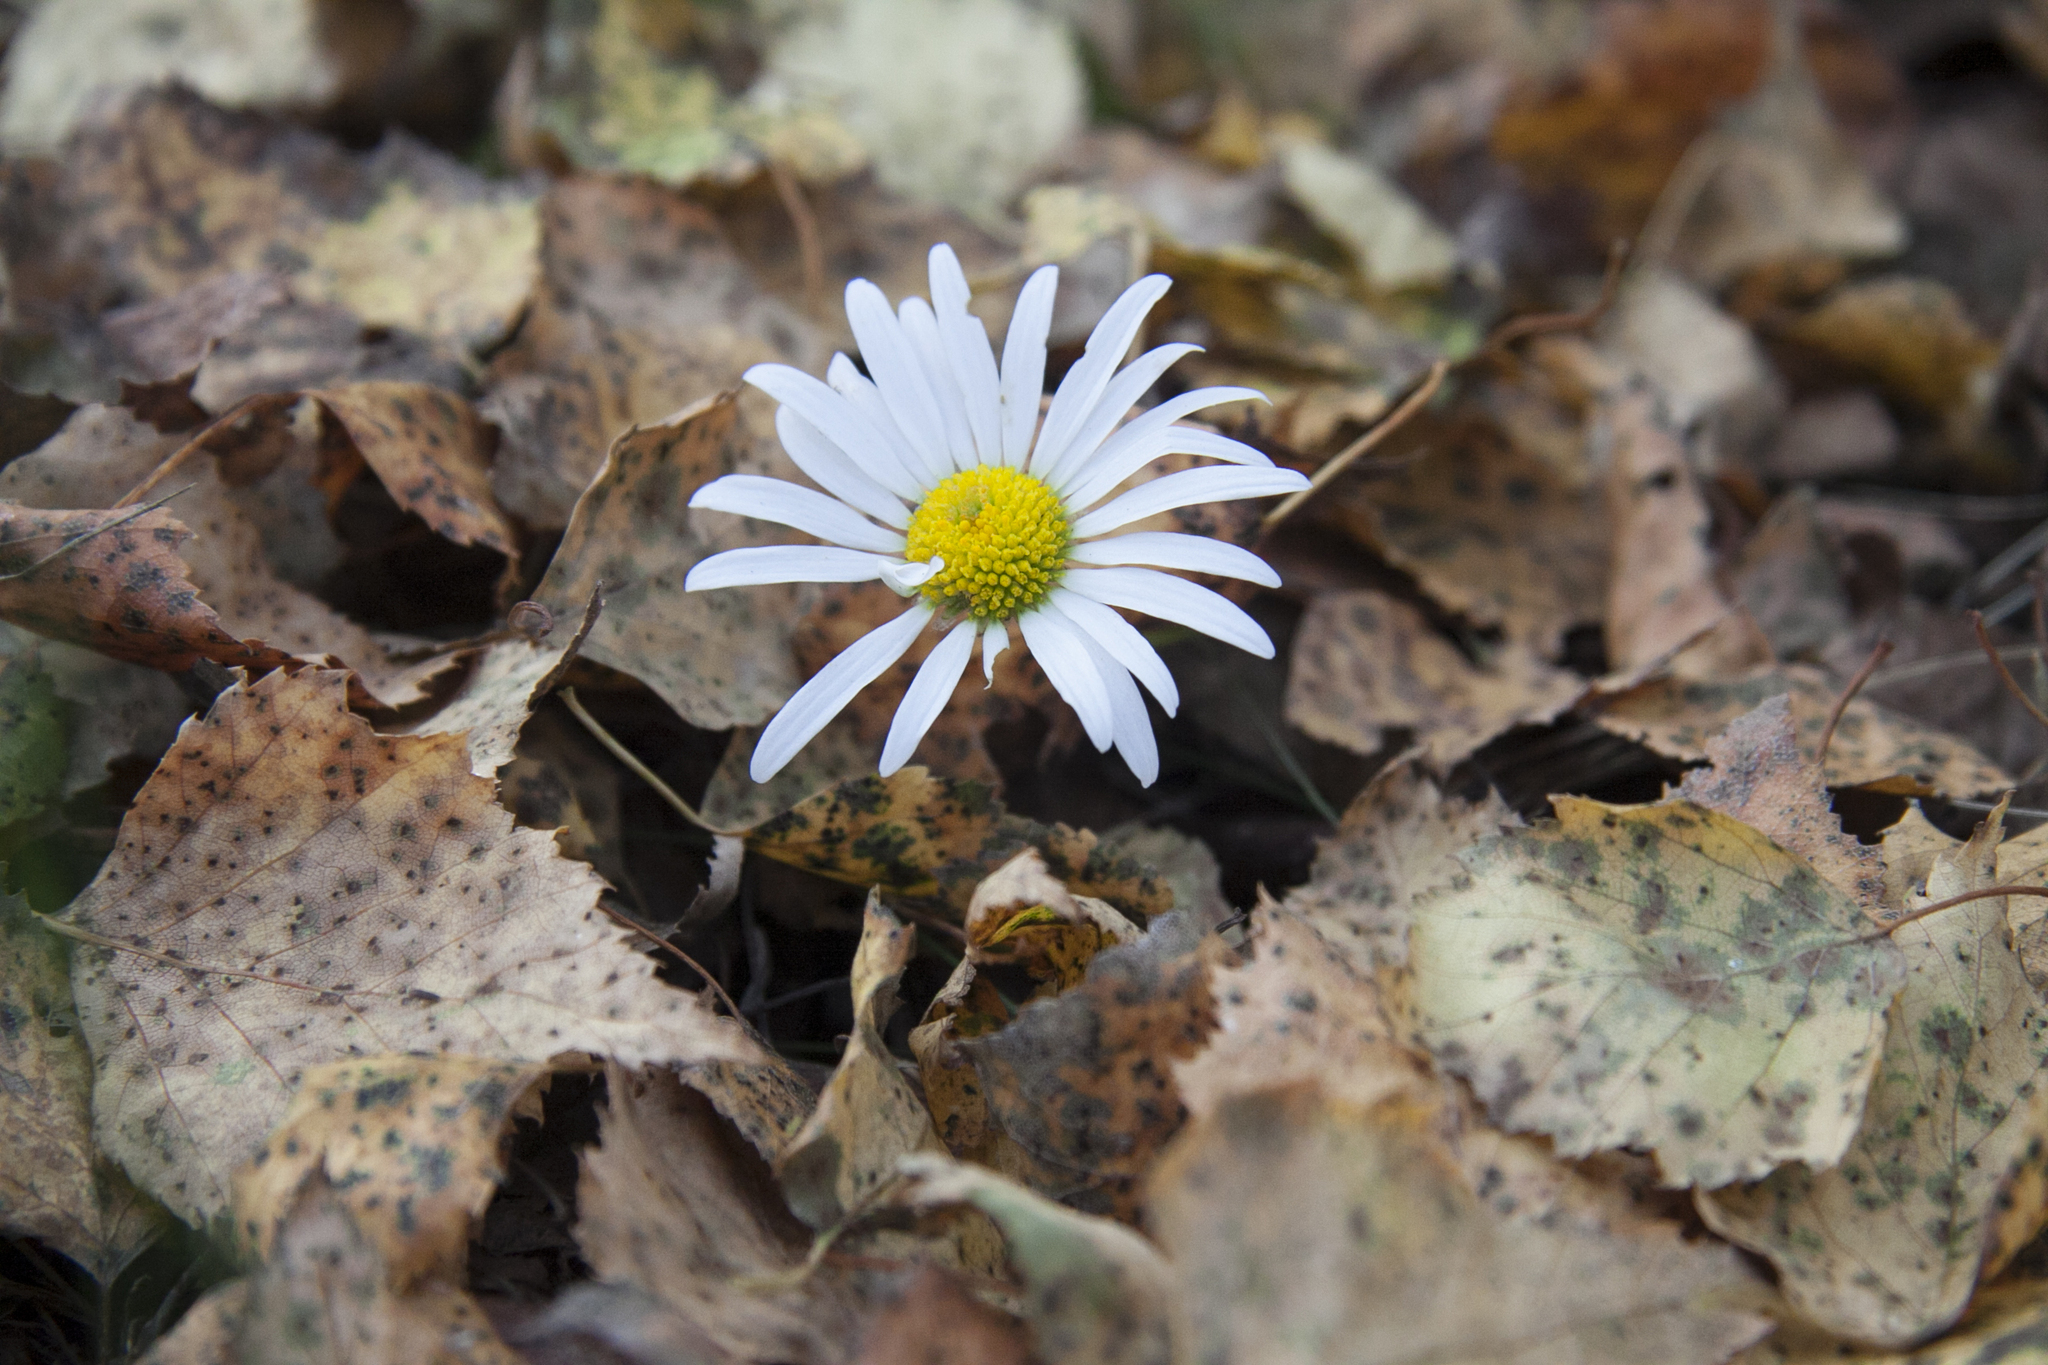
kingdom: Plantae
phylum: Tracheophyta
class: Magnoliopsida
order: Asterales
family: Asteraceae
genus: Leucanthemum
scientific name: Leucanthemum vulgare
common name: Oxeye daisy
